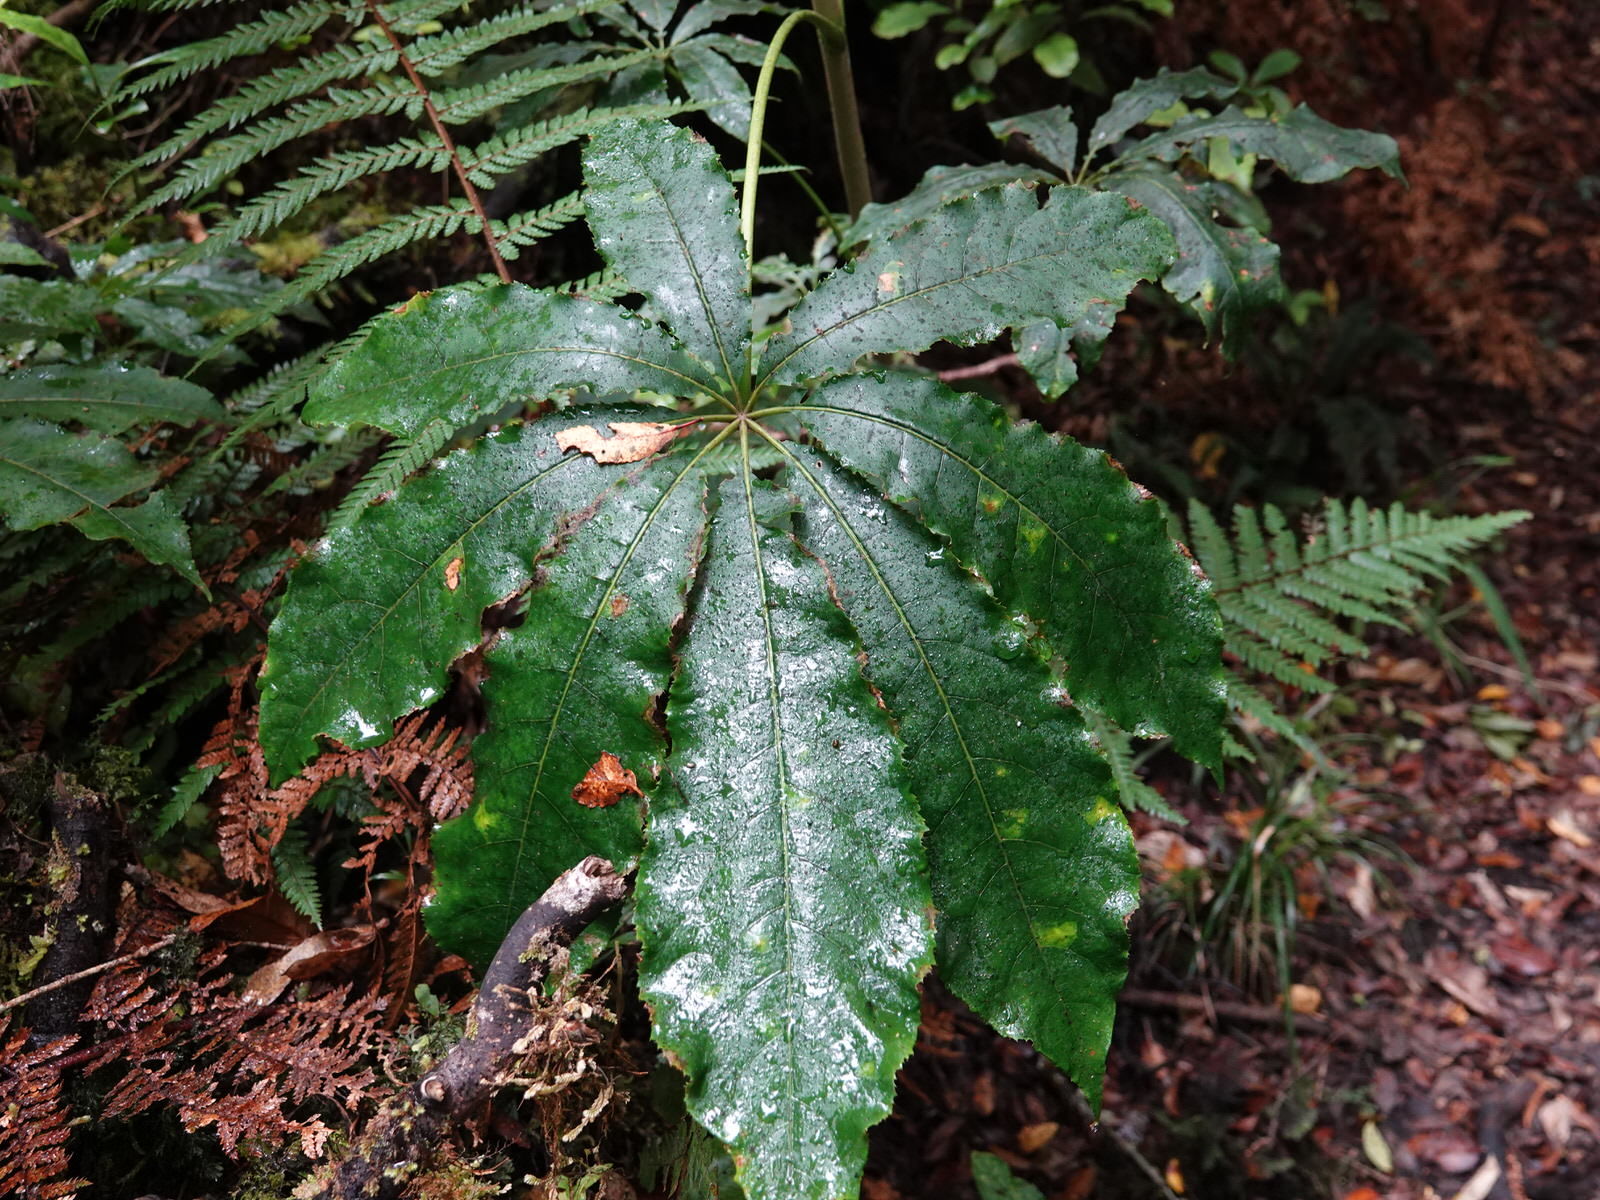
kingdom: Plantae
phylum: Tracheophyta
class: Magnoliopsida
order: Apiales
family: Araliaceae
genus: Schefflera
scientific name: Schefflera digitata
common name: Pate
